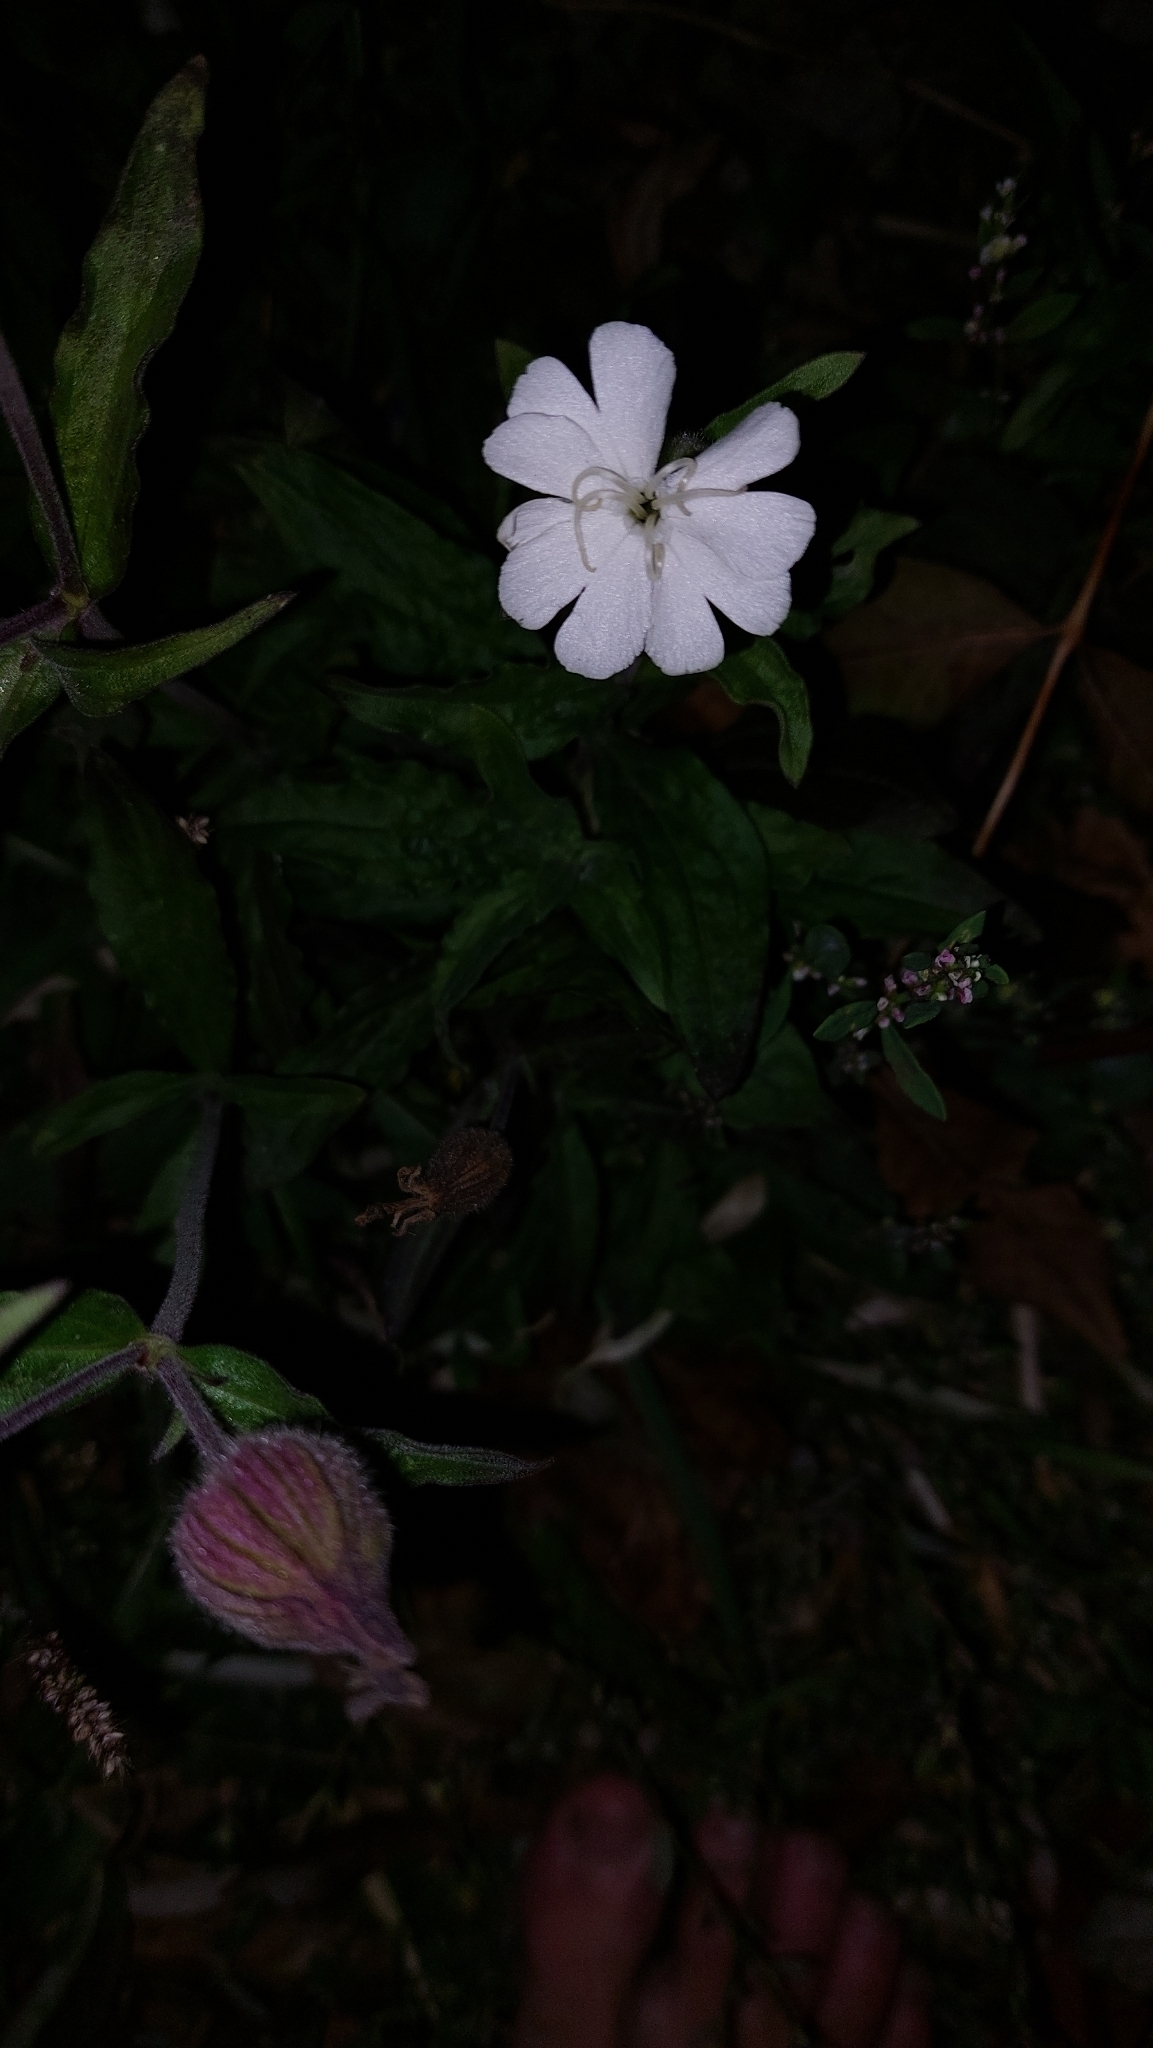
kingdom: Plantae
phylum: Tracheophyta
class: Magnoliopsida
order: Caryophyllales
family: Caryophyllaceae
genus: Silene
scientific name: Silene latifolia
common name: White campion
